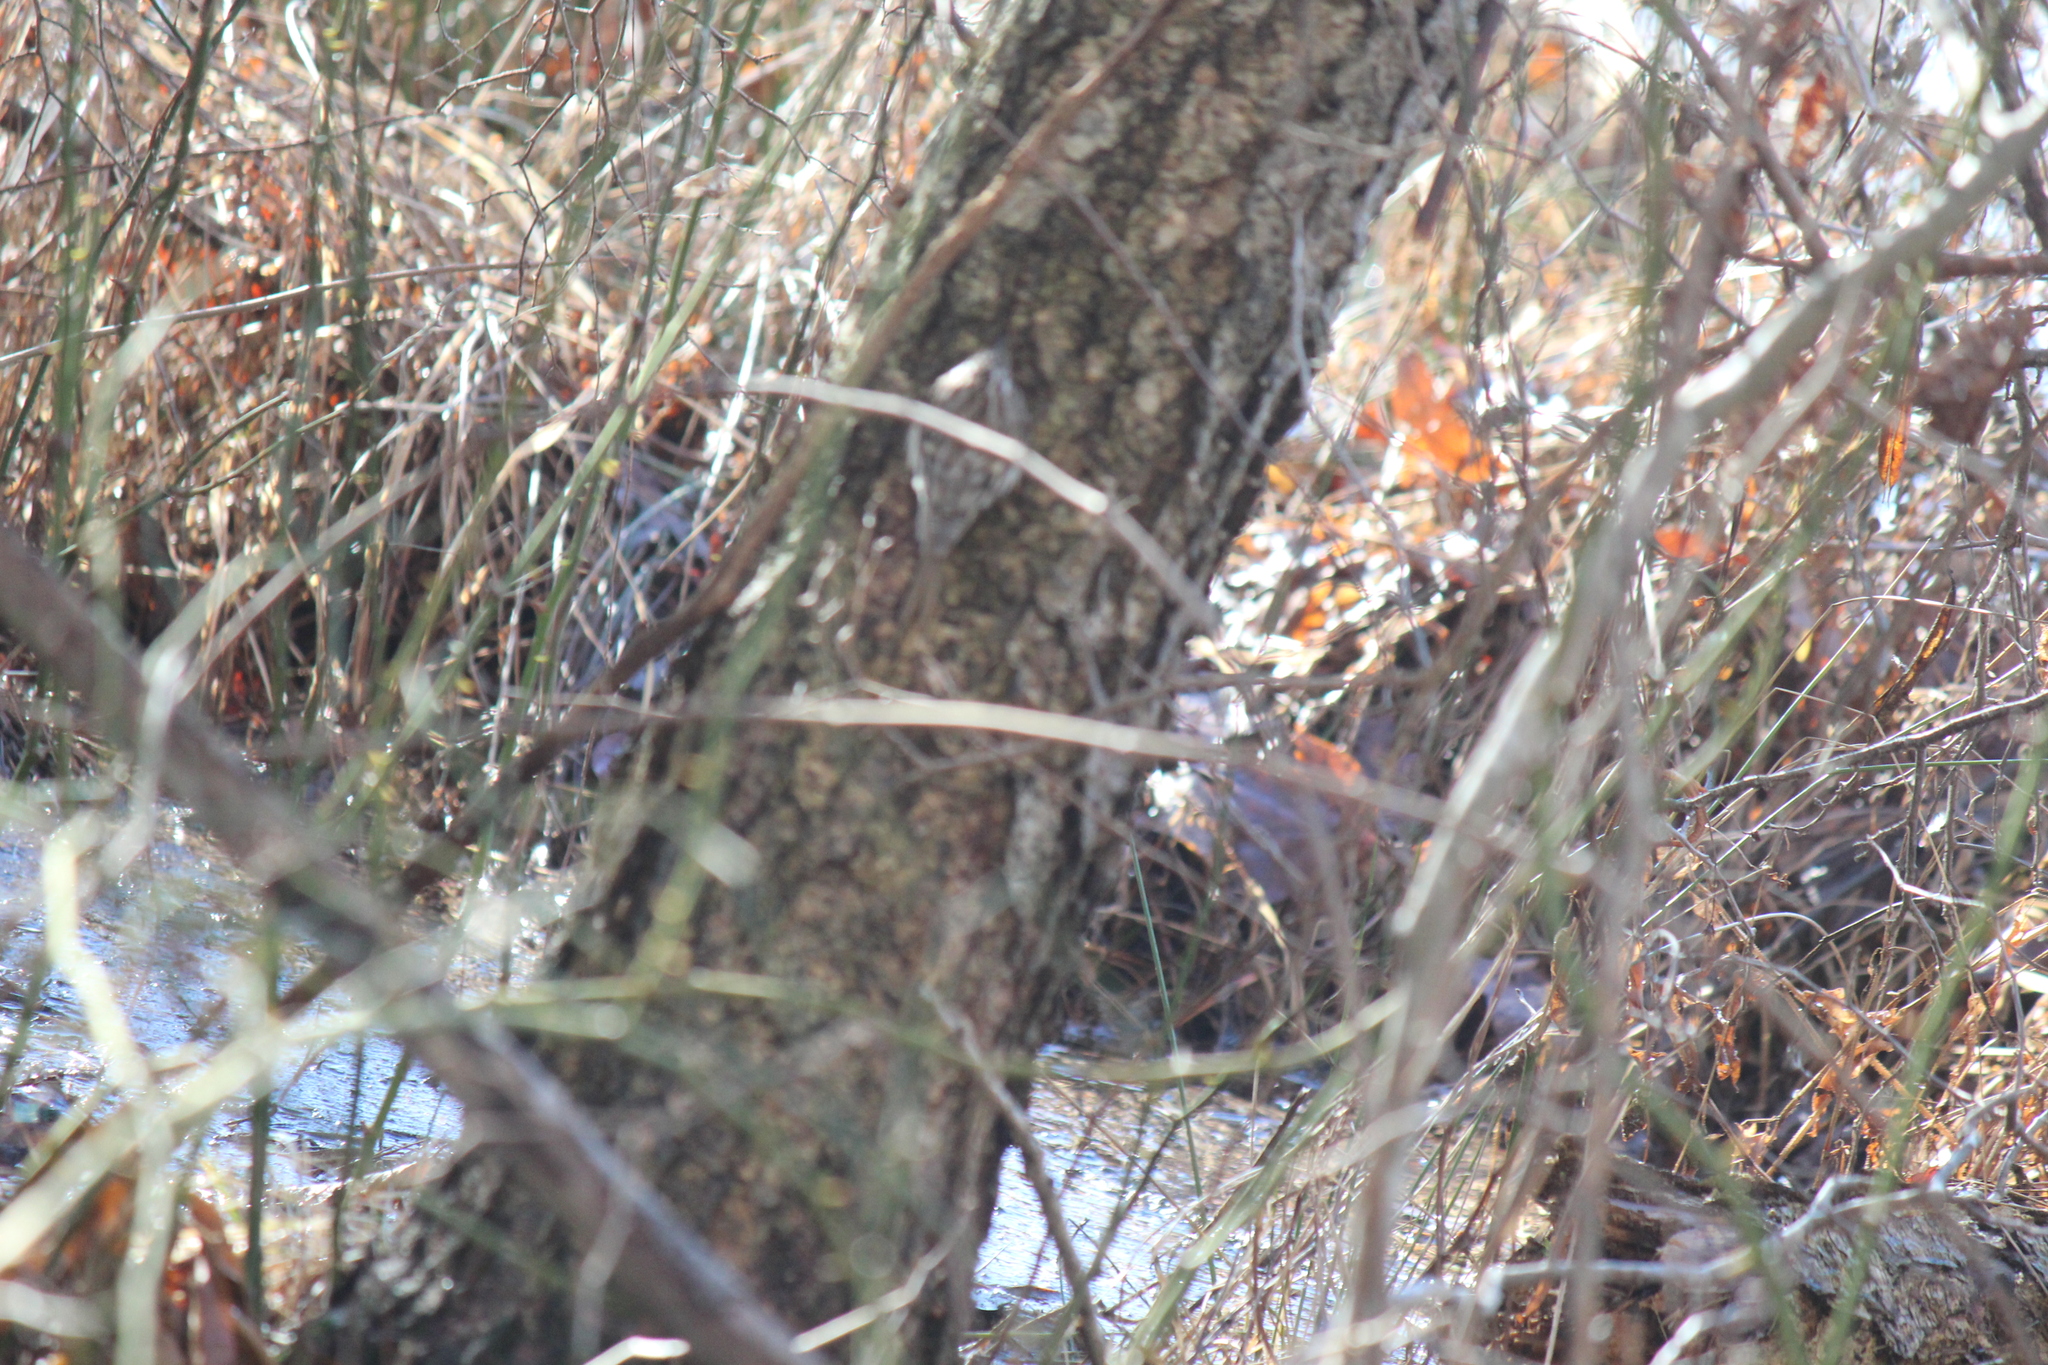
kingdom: Animalia
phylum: Chordata
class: Aves
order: Passeriformes
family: Certhiidae
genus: Certhia
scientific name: Certhia americana
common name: Brown creeper
